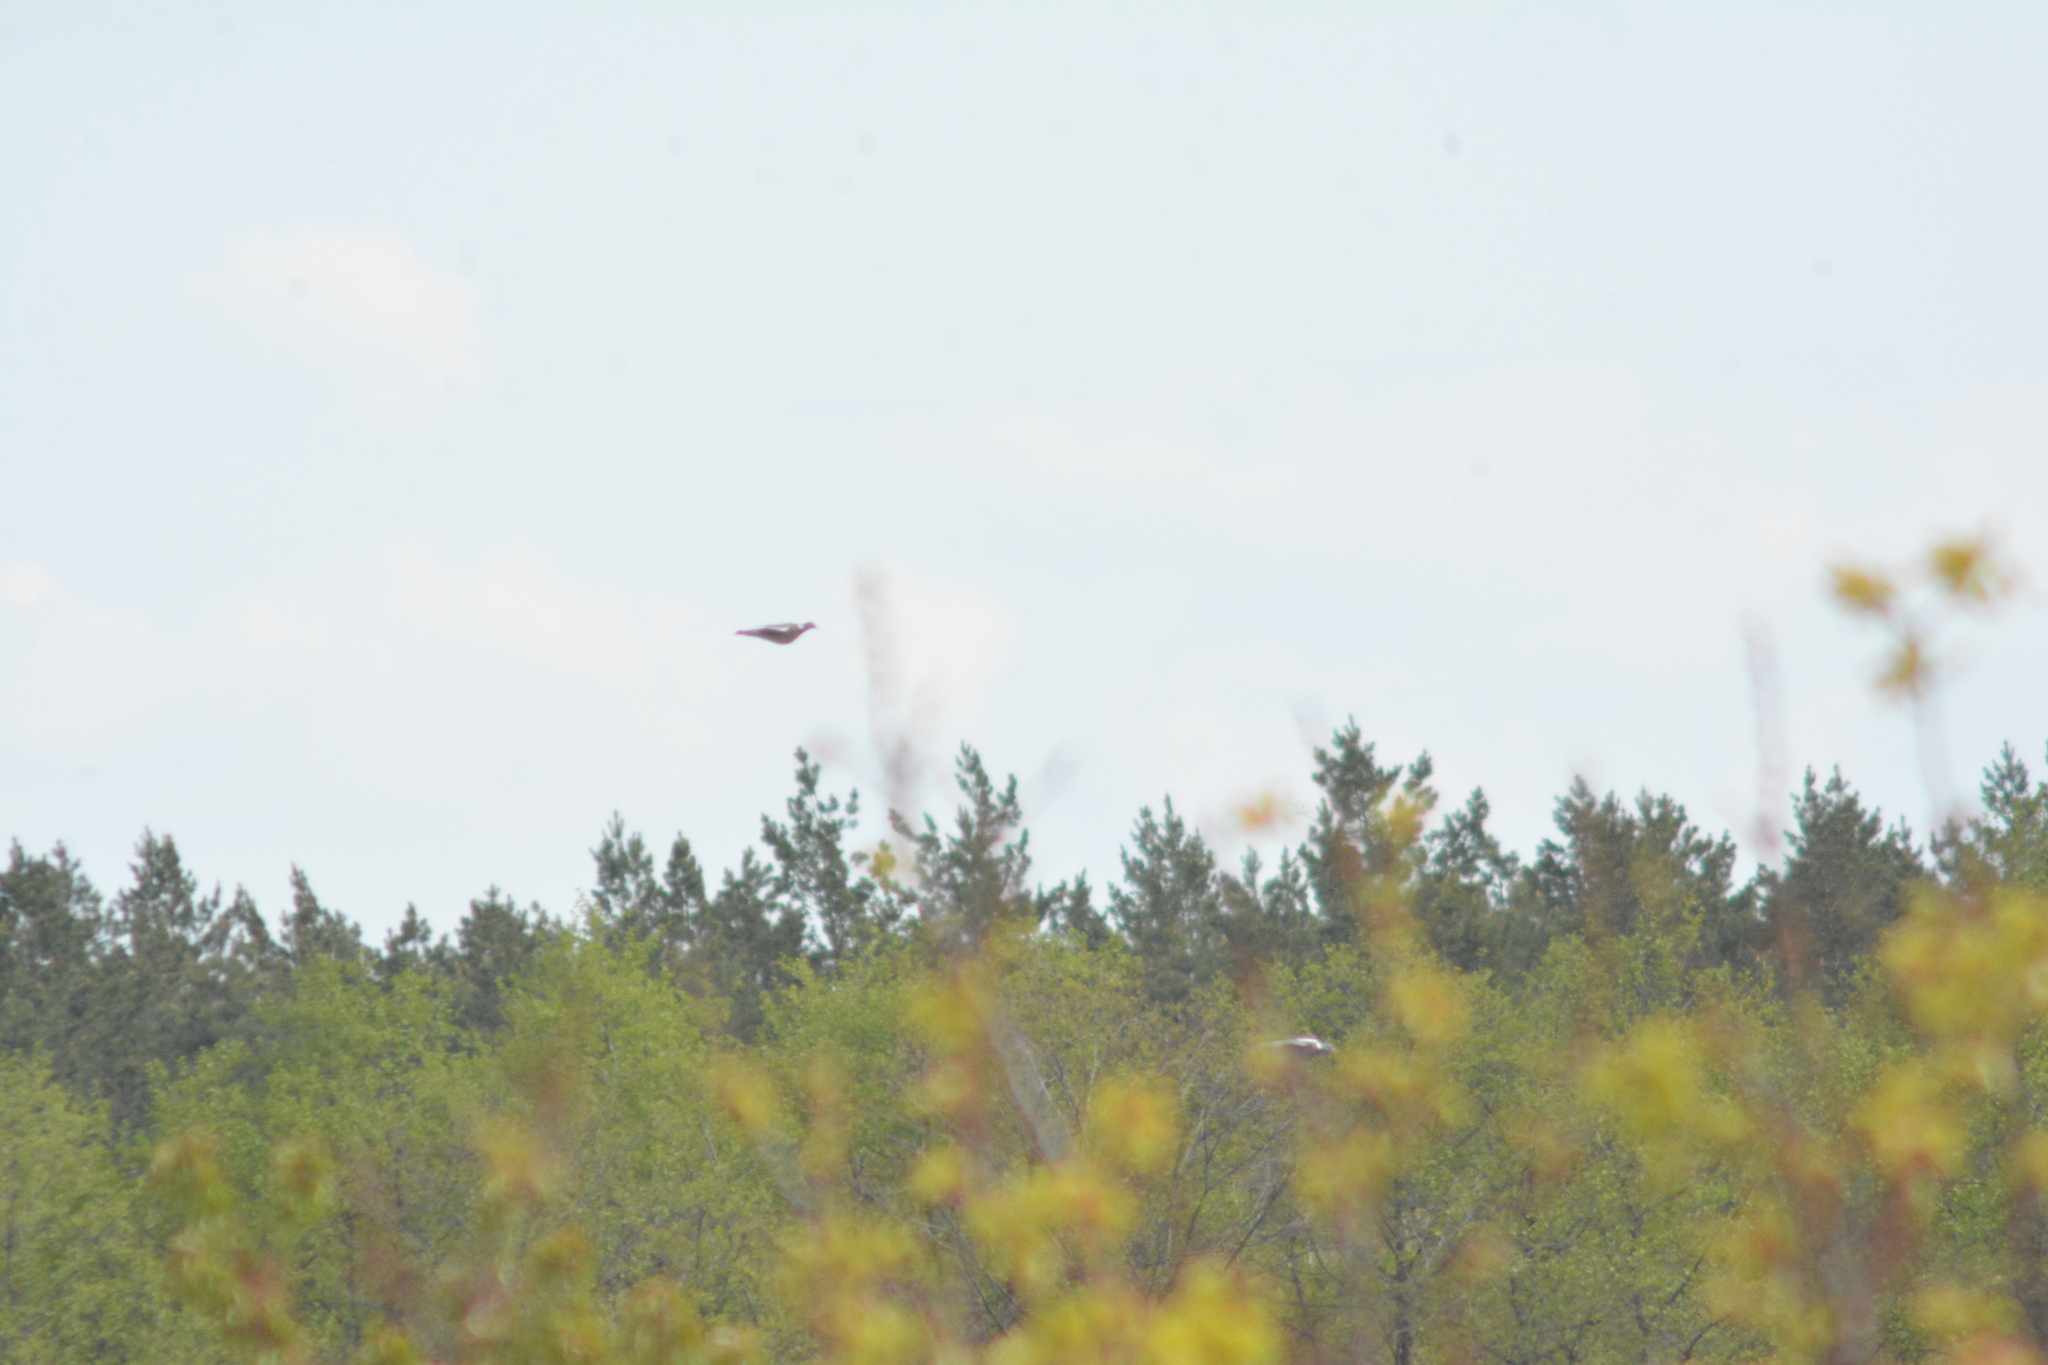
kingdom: Animalia
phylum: Chordata
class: Aves
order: Columbiformes
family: Columbidae
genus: Columba
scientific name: Columba palumbus
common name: Common wood pigeon
